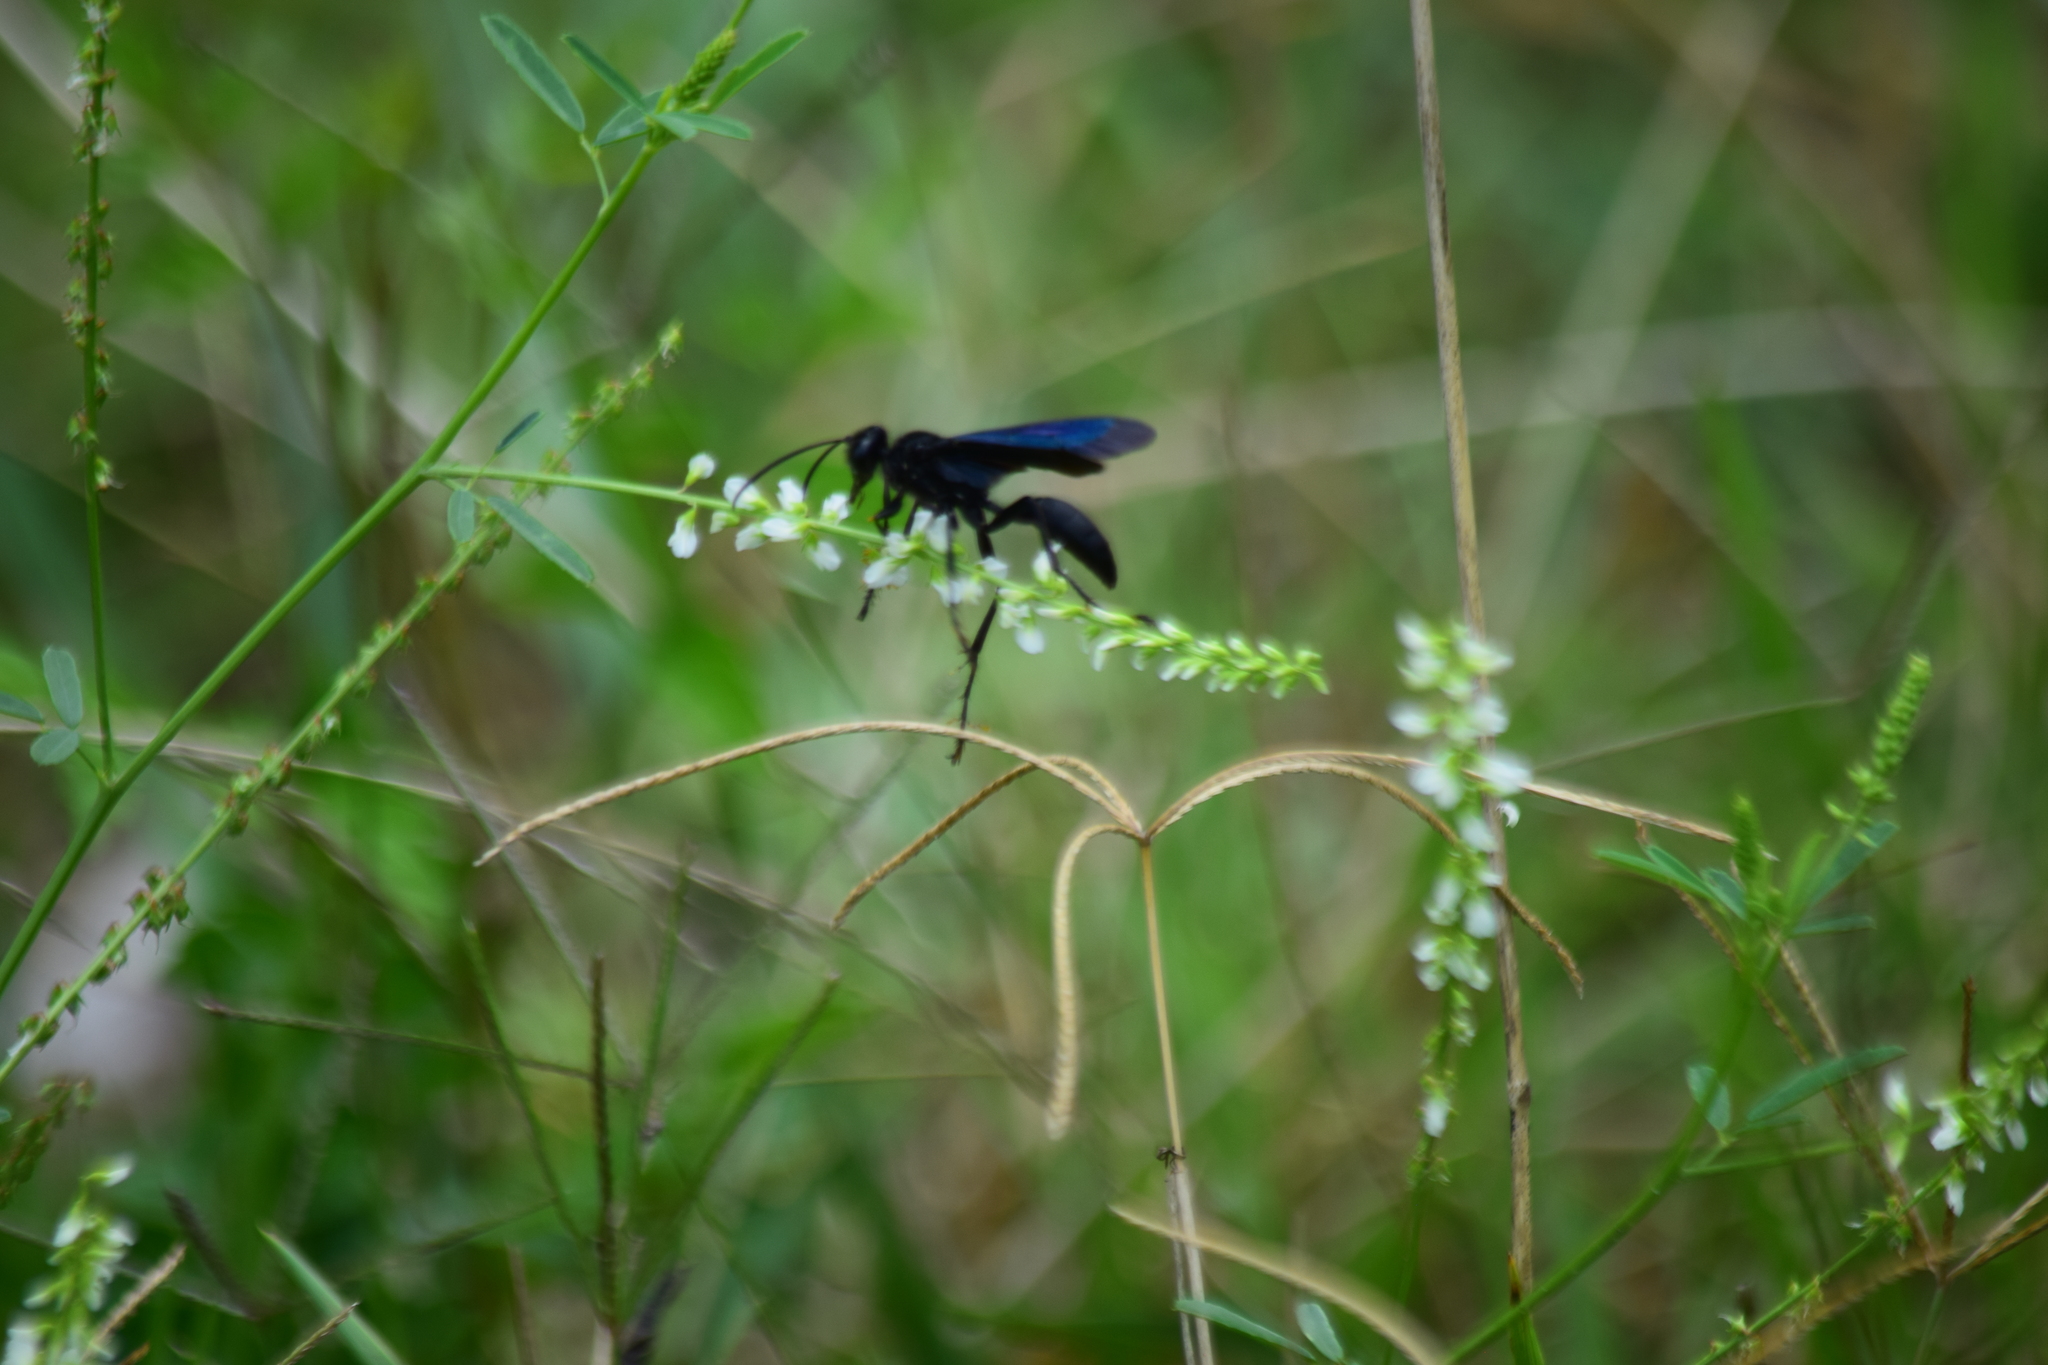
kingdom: Animalia
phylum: Arthropoda
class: Insecta
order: Hymenoptera
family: Sphecidae
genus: Sphex
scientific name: Sphex pensylvanicus
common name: Great black digger wasp
